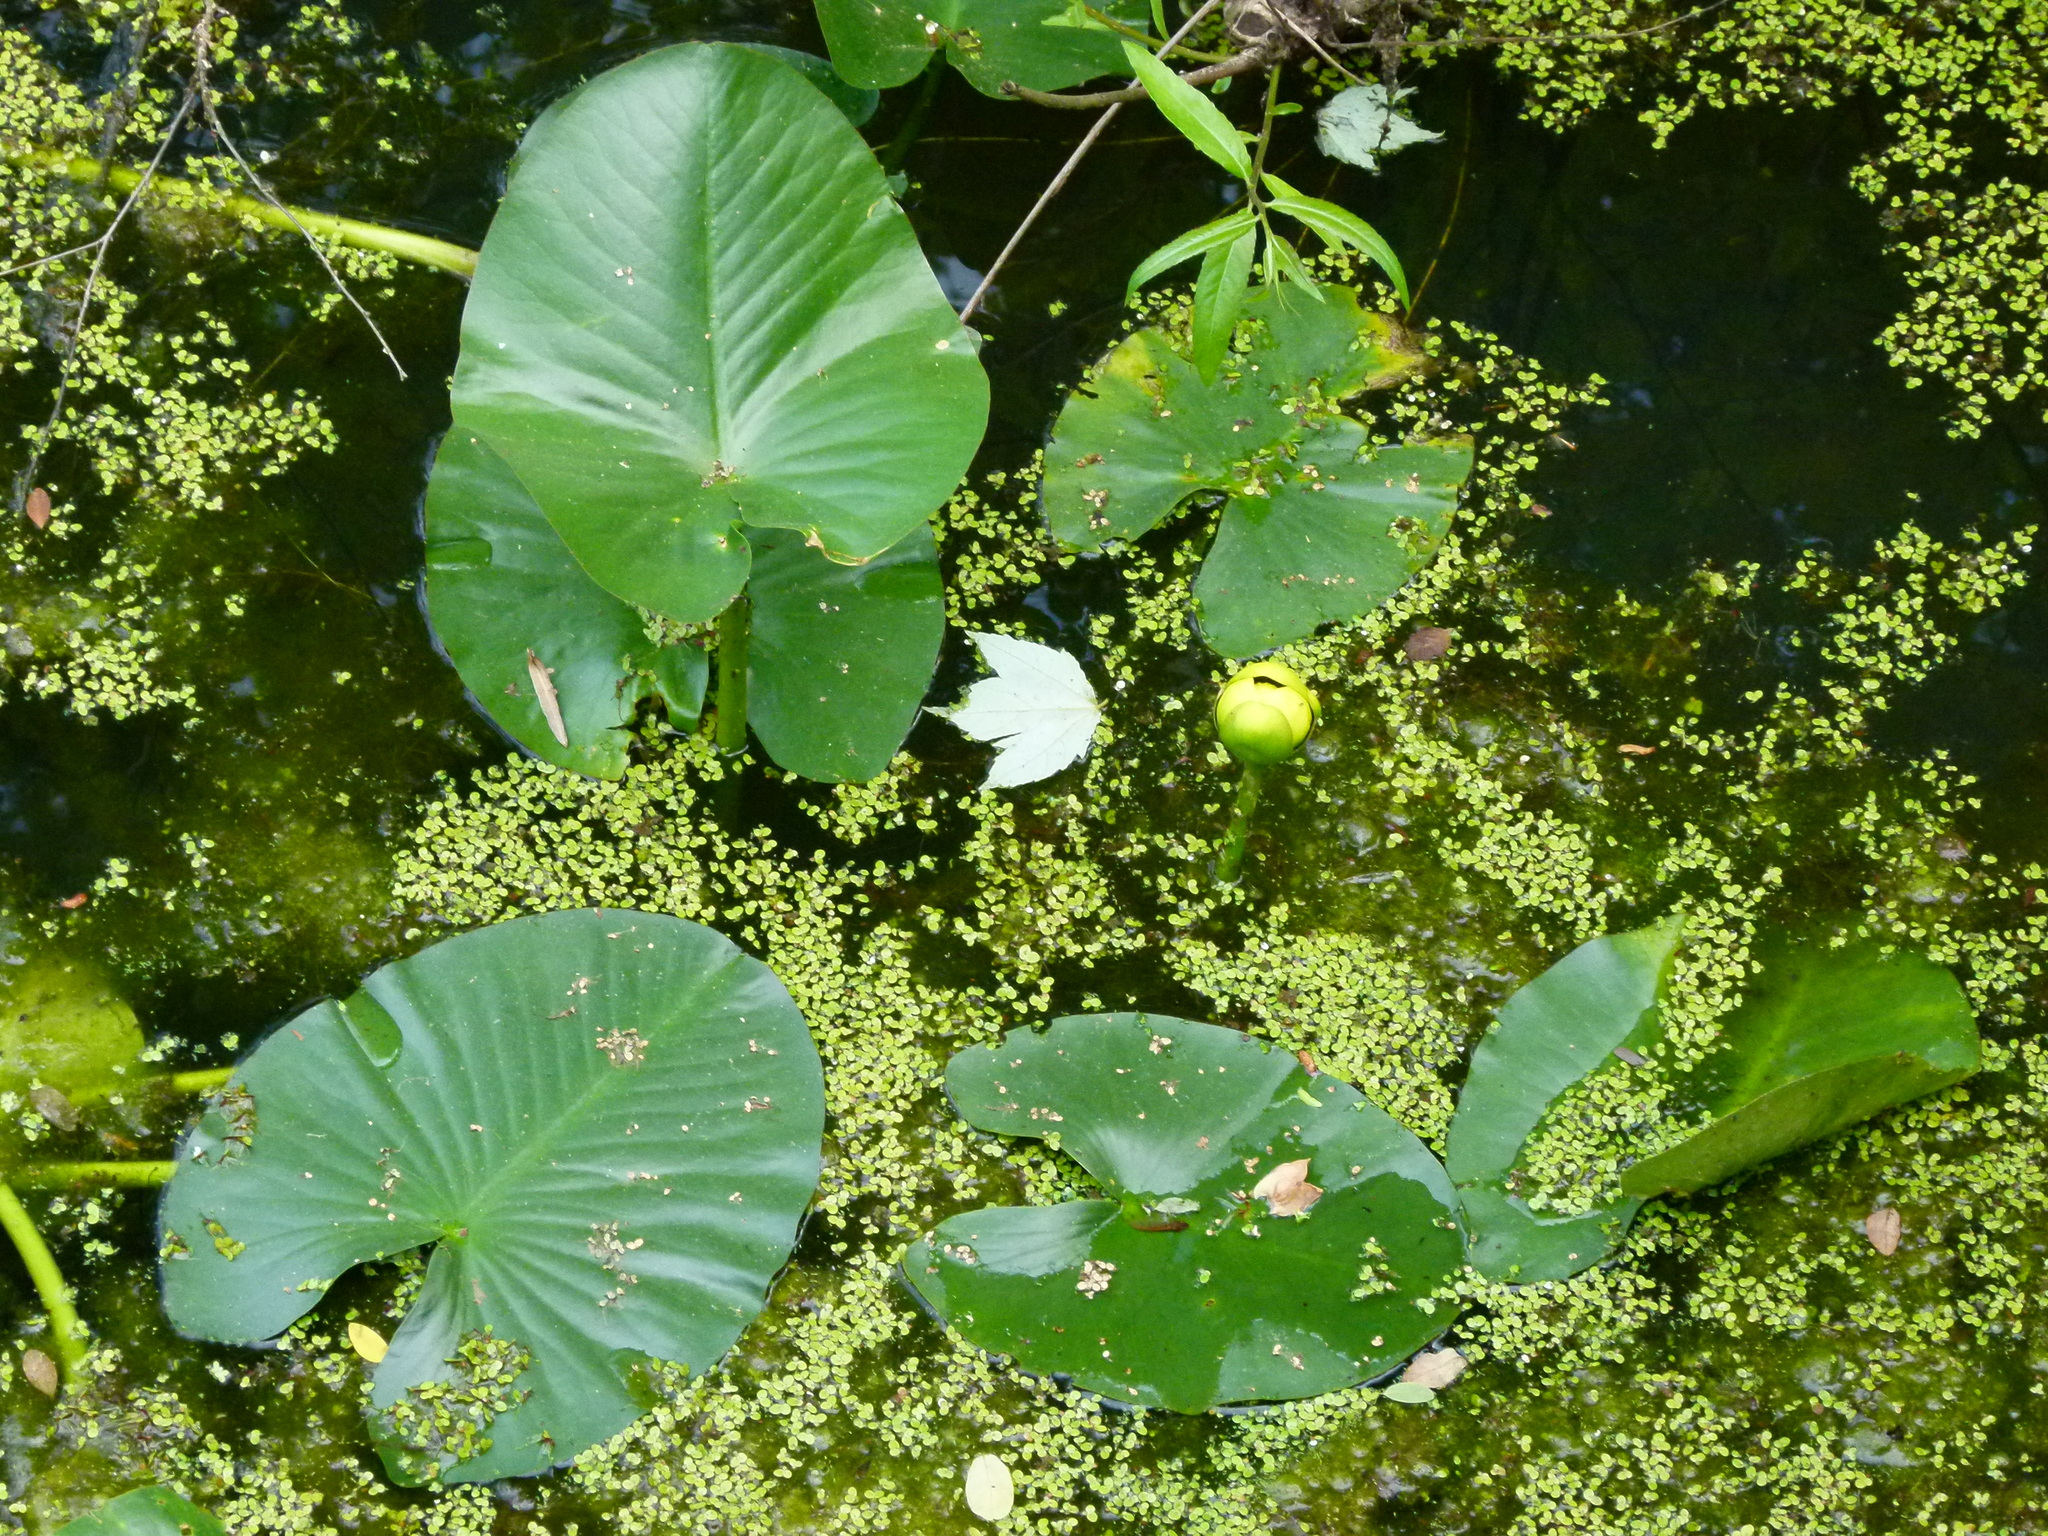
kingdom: Plantae
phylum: Tracheophyta
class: Magnoliopsida
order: Nymphaeales
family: Nymphaeaceae
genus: Nuphar
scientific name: Nuphar advena
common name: Spatter-dock
